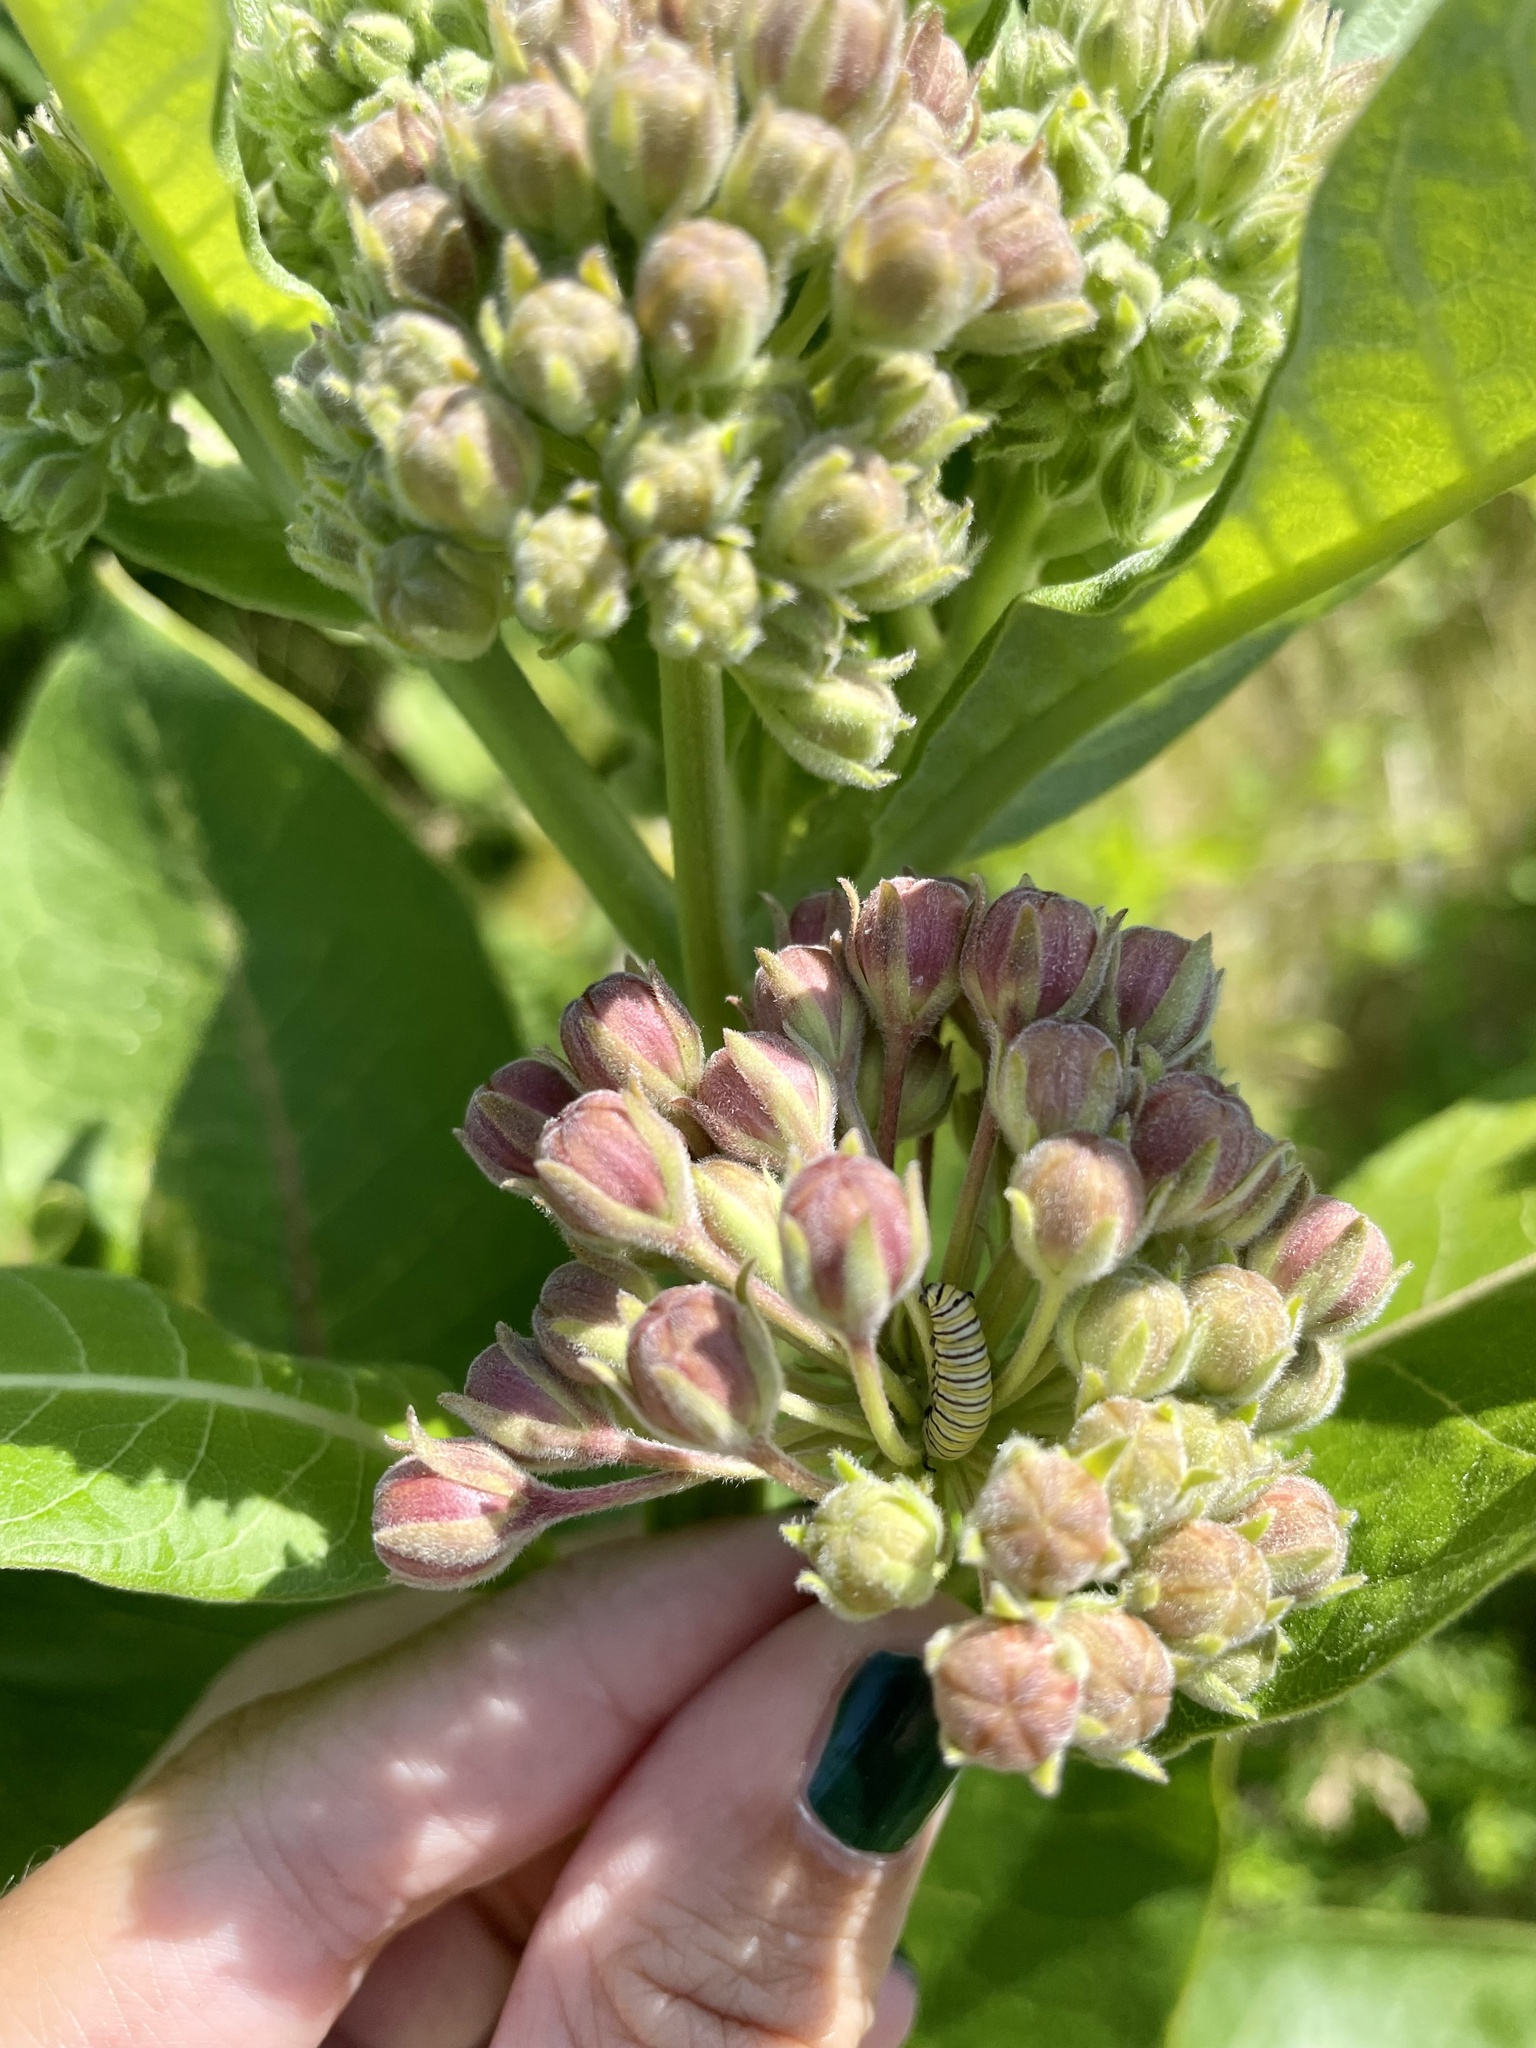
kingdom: Animalia
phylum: Arthropoda
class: Insecta
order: Lepidoptera
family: Nymphalidae
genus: Danaus
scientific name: Danaus plexippus
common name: Monarch
